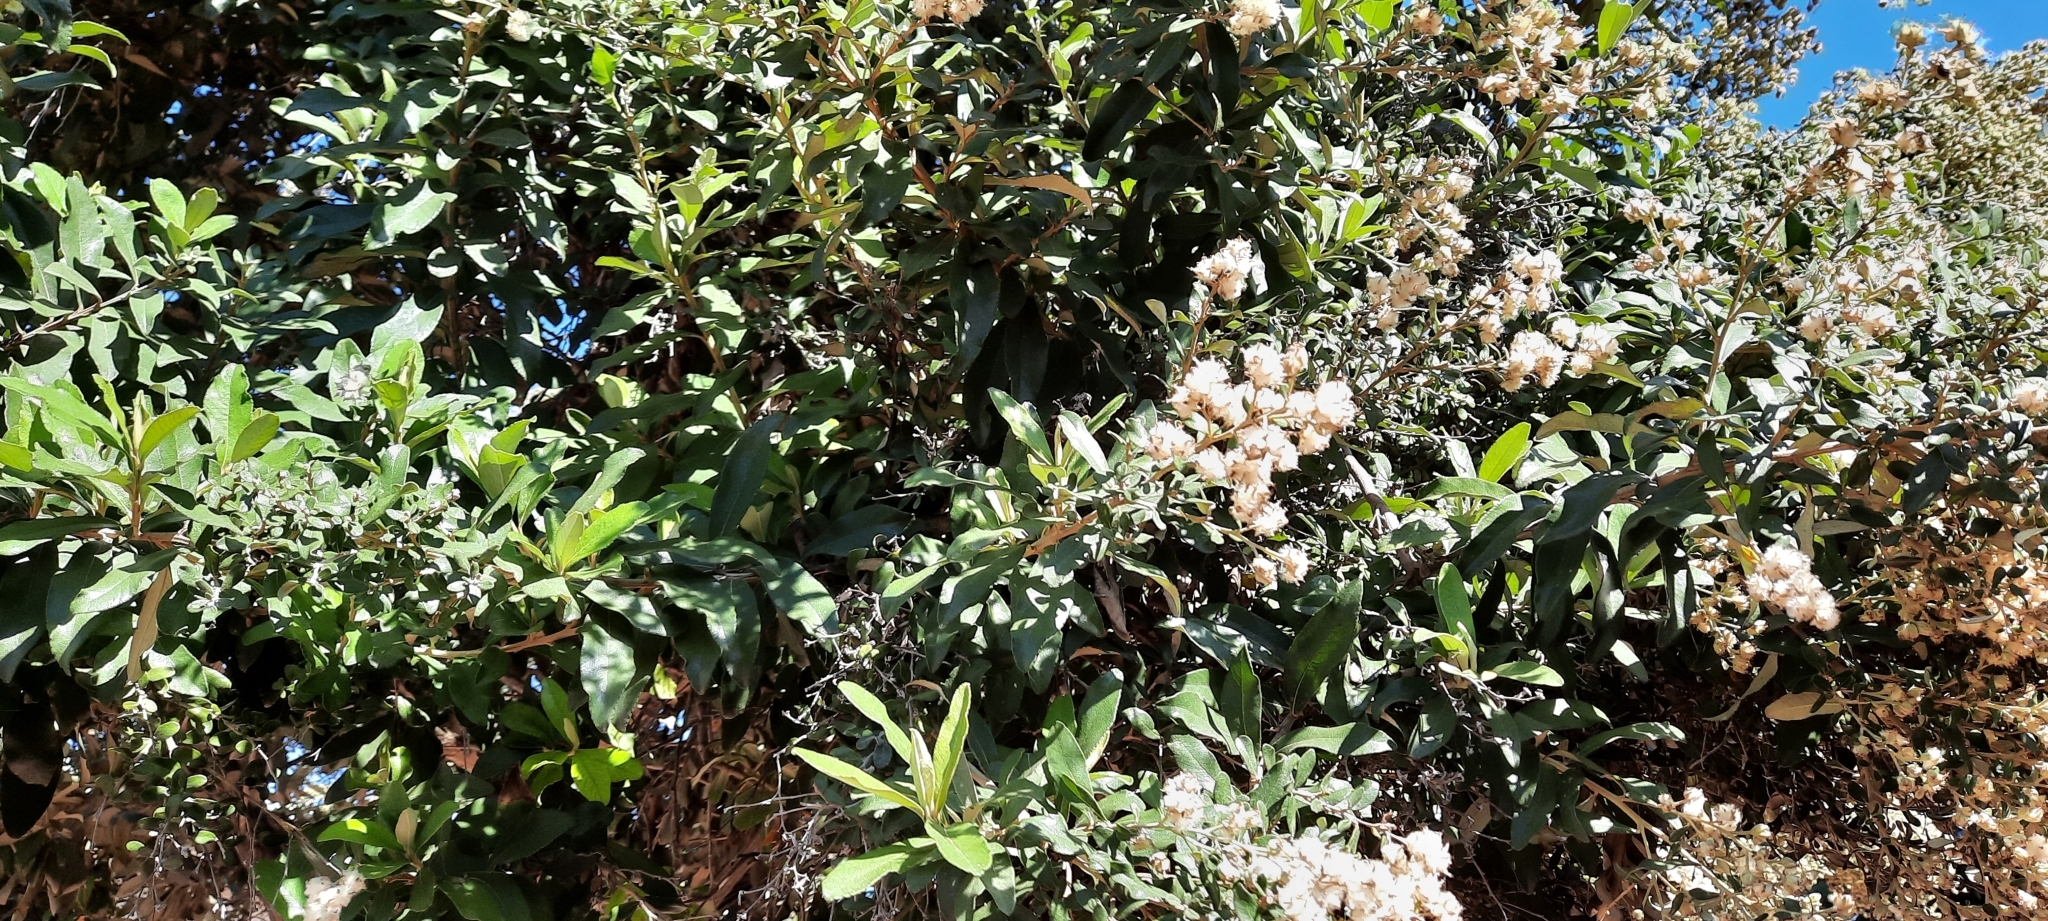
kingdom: Plantae
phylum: Tracheophyta
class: Magnoliopsida
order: Asterales
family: Asteraceae
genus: Tarchonanthus
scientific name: Tarchonanthus littoralis
